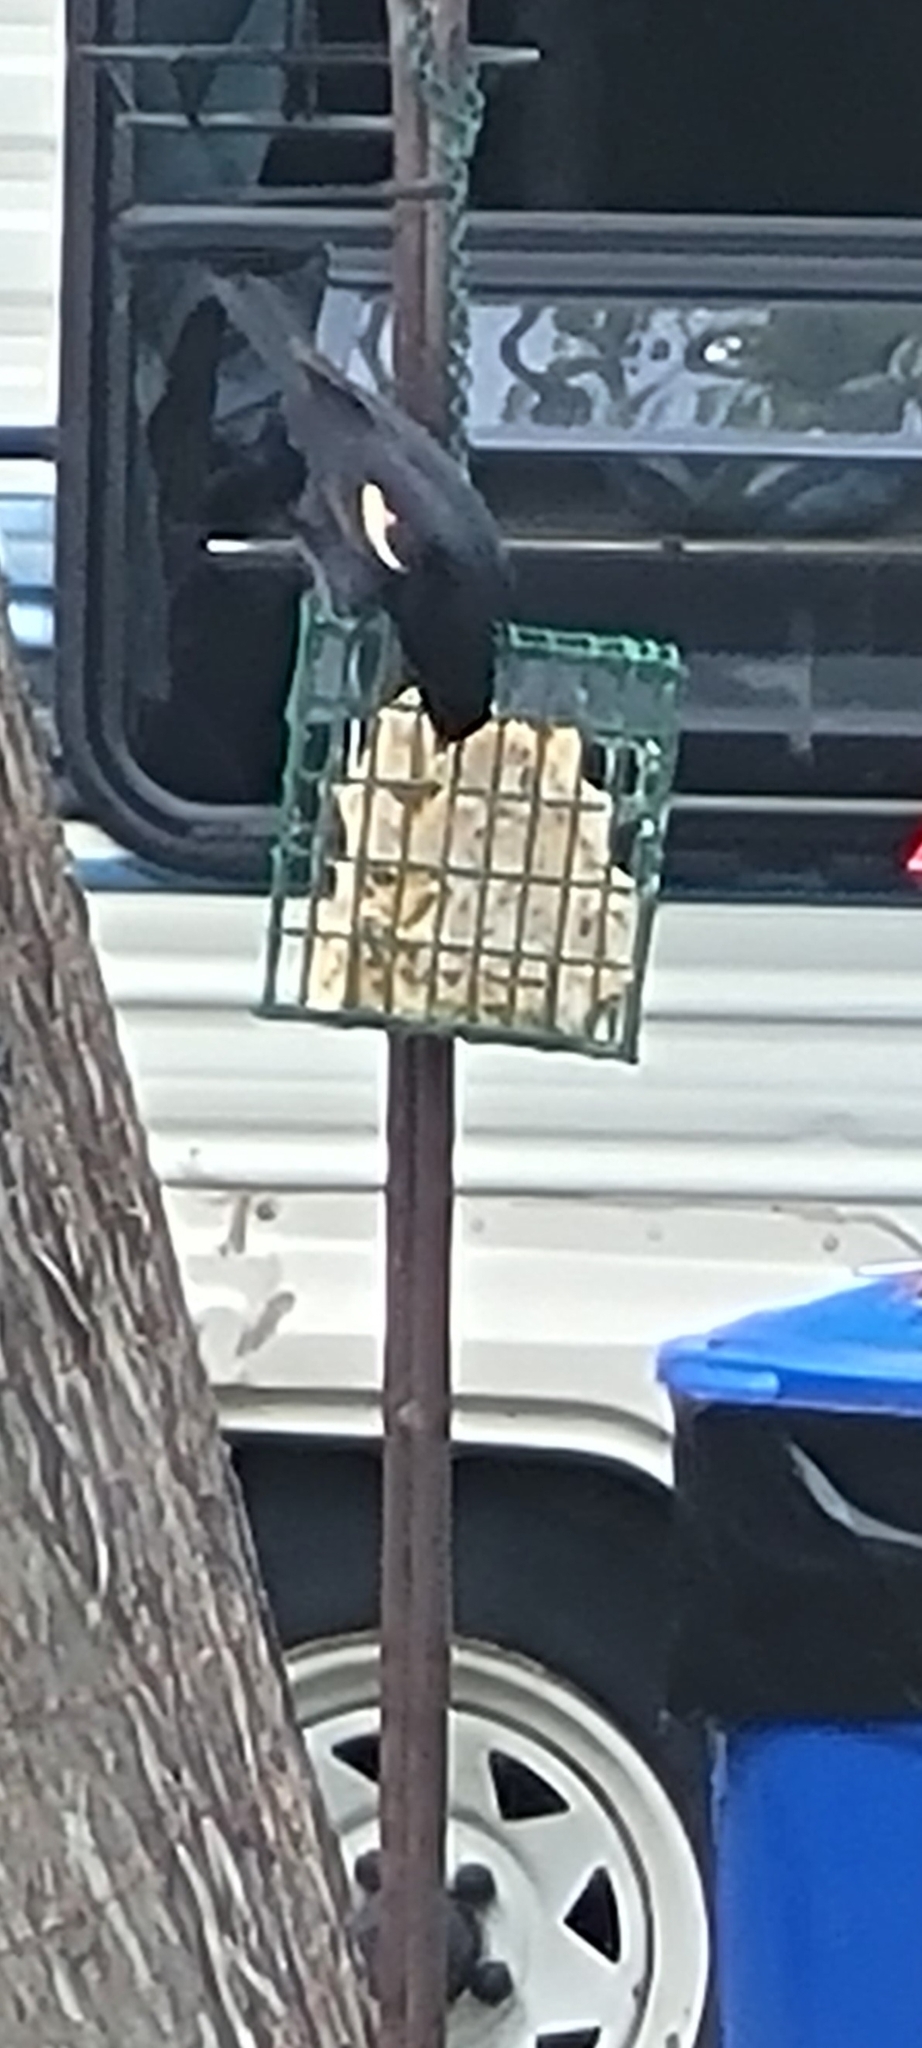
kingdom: Animalia
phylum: Chordata
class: Aves
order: Passeriformes
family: Icteridae
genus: Agelaius
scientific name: Agelaius phoeniceus
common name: Red-winged blackbird
